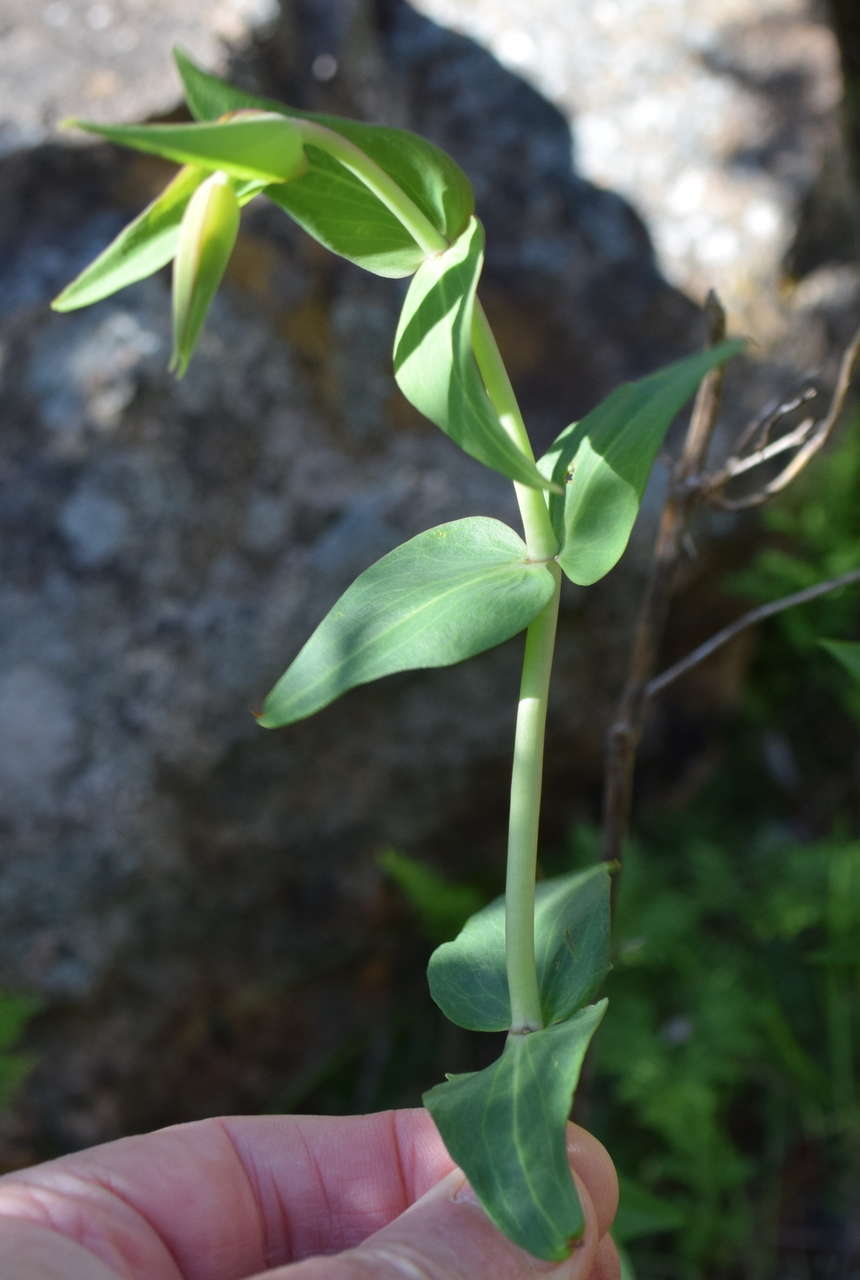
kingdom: Plantae
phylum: Tracheophyta
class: Magnoliopsida
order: Lamiales
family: Plantaginaceae
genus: Veronica
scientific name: Veronica perfoliata
